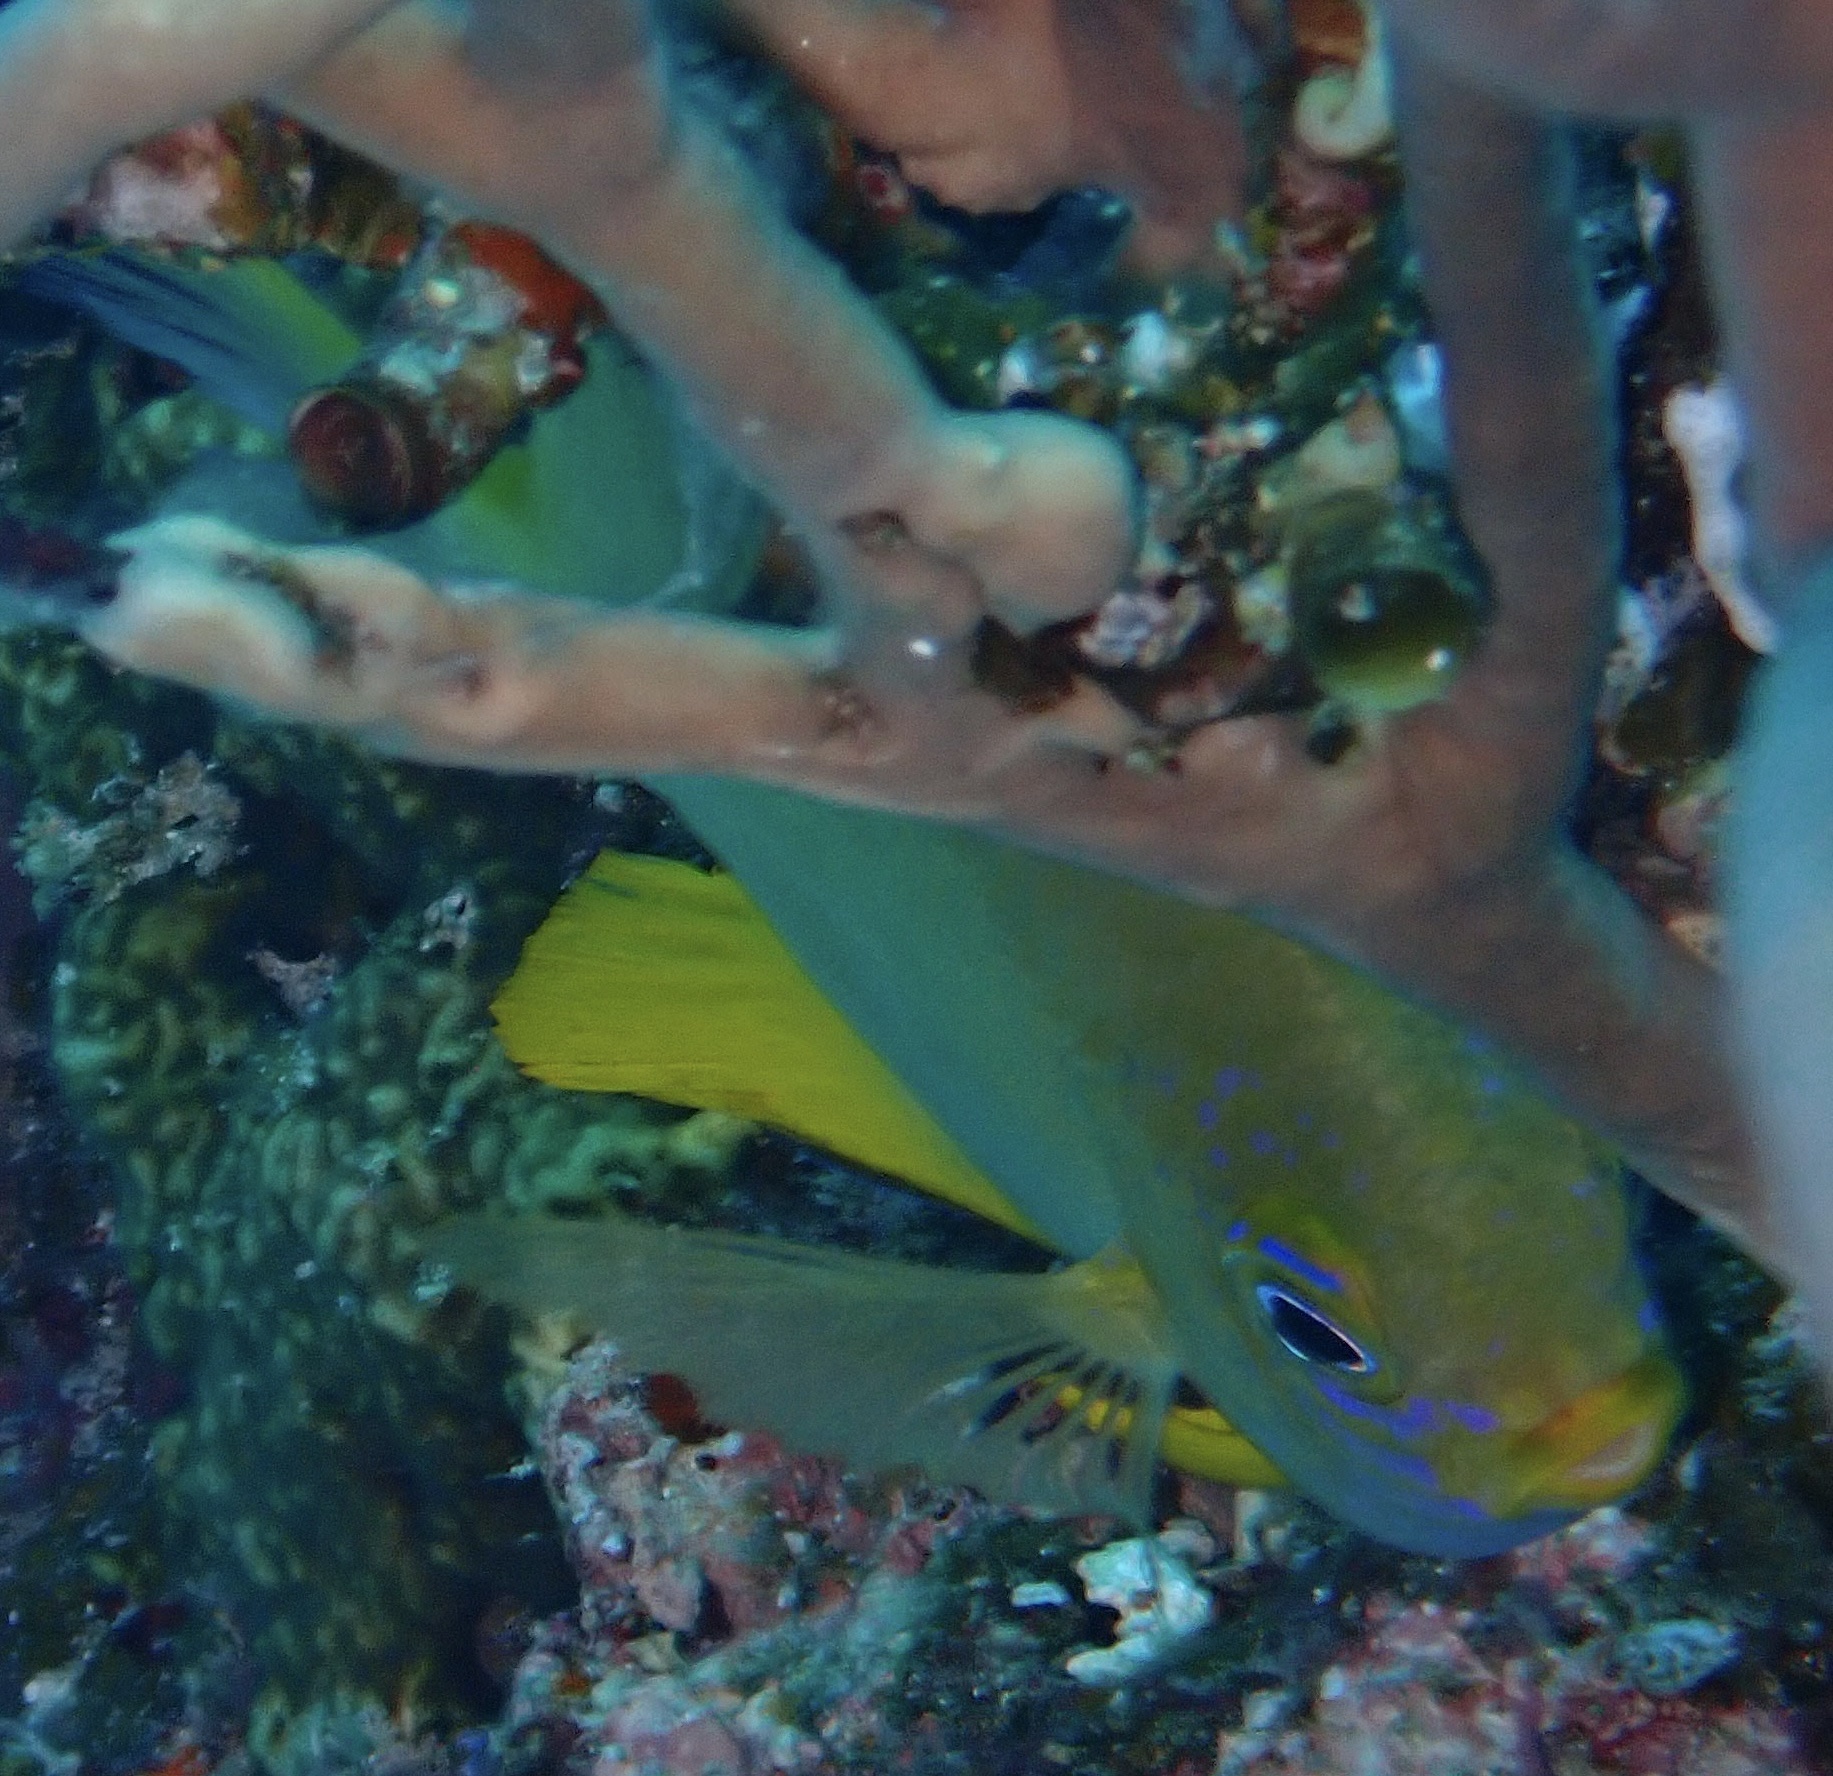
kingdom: Animalia
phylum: Chordata
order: Perciformes
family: Pomacentridae
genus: Amblyglyphidodon
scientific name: Amblyglyphidodon aureus
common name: Golden damsel
